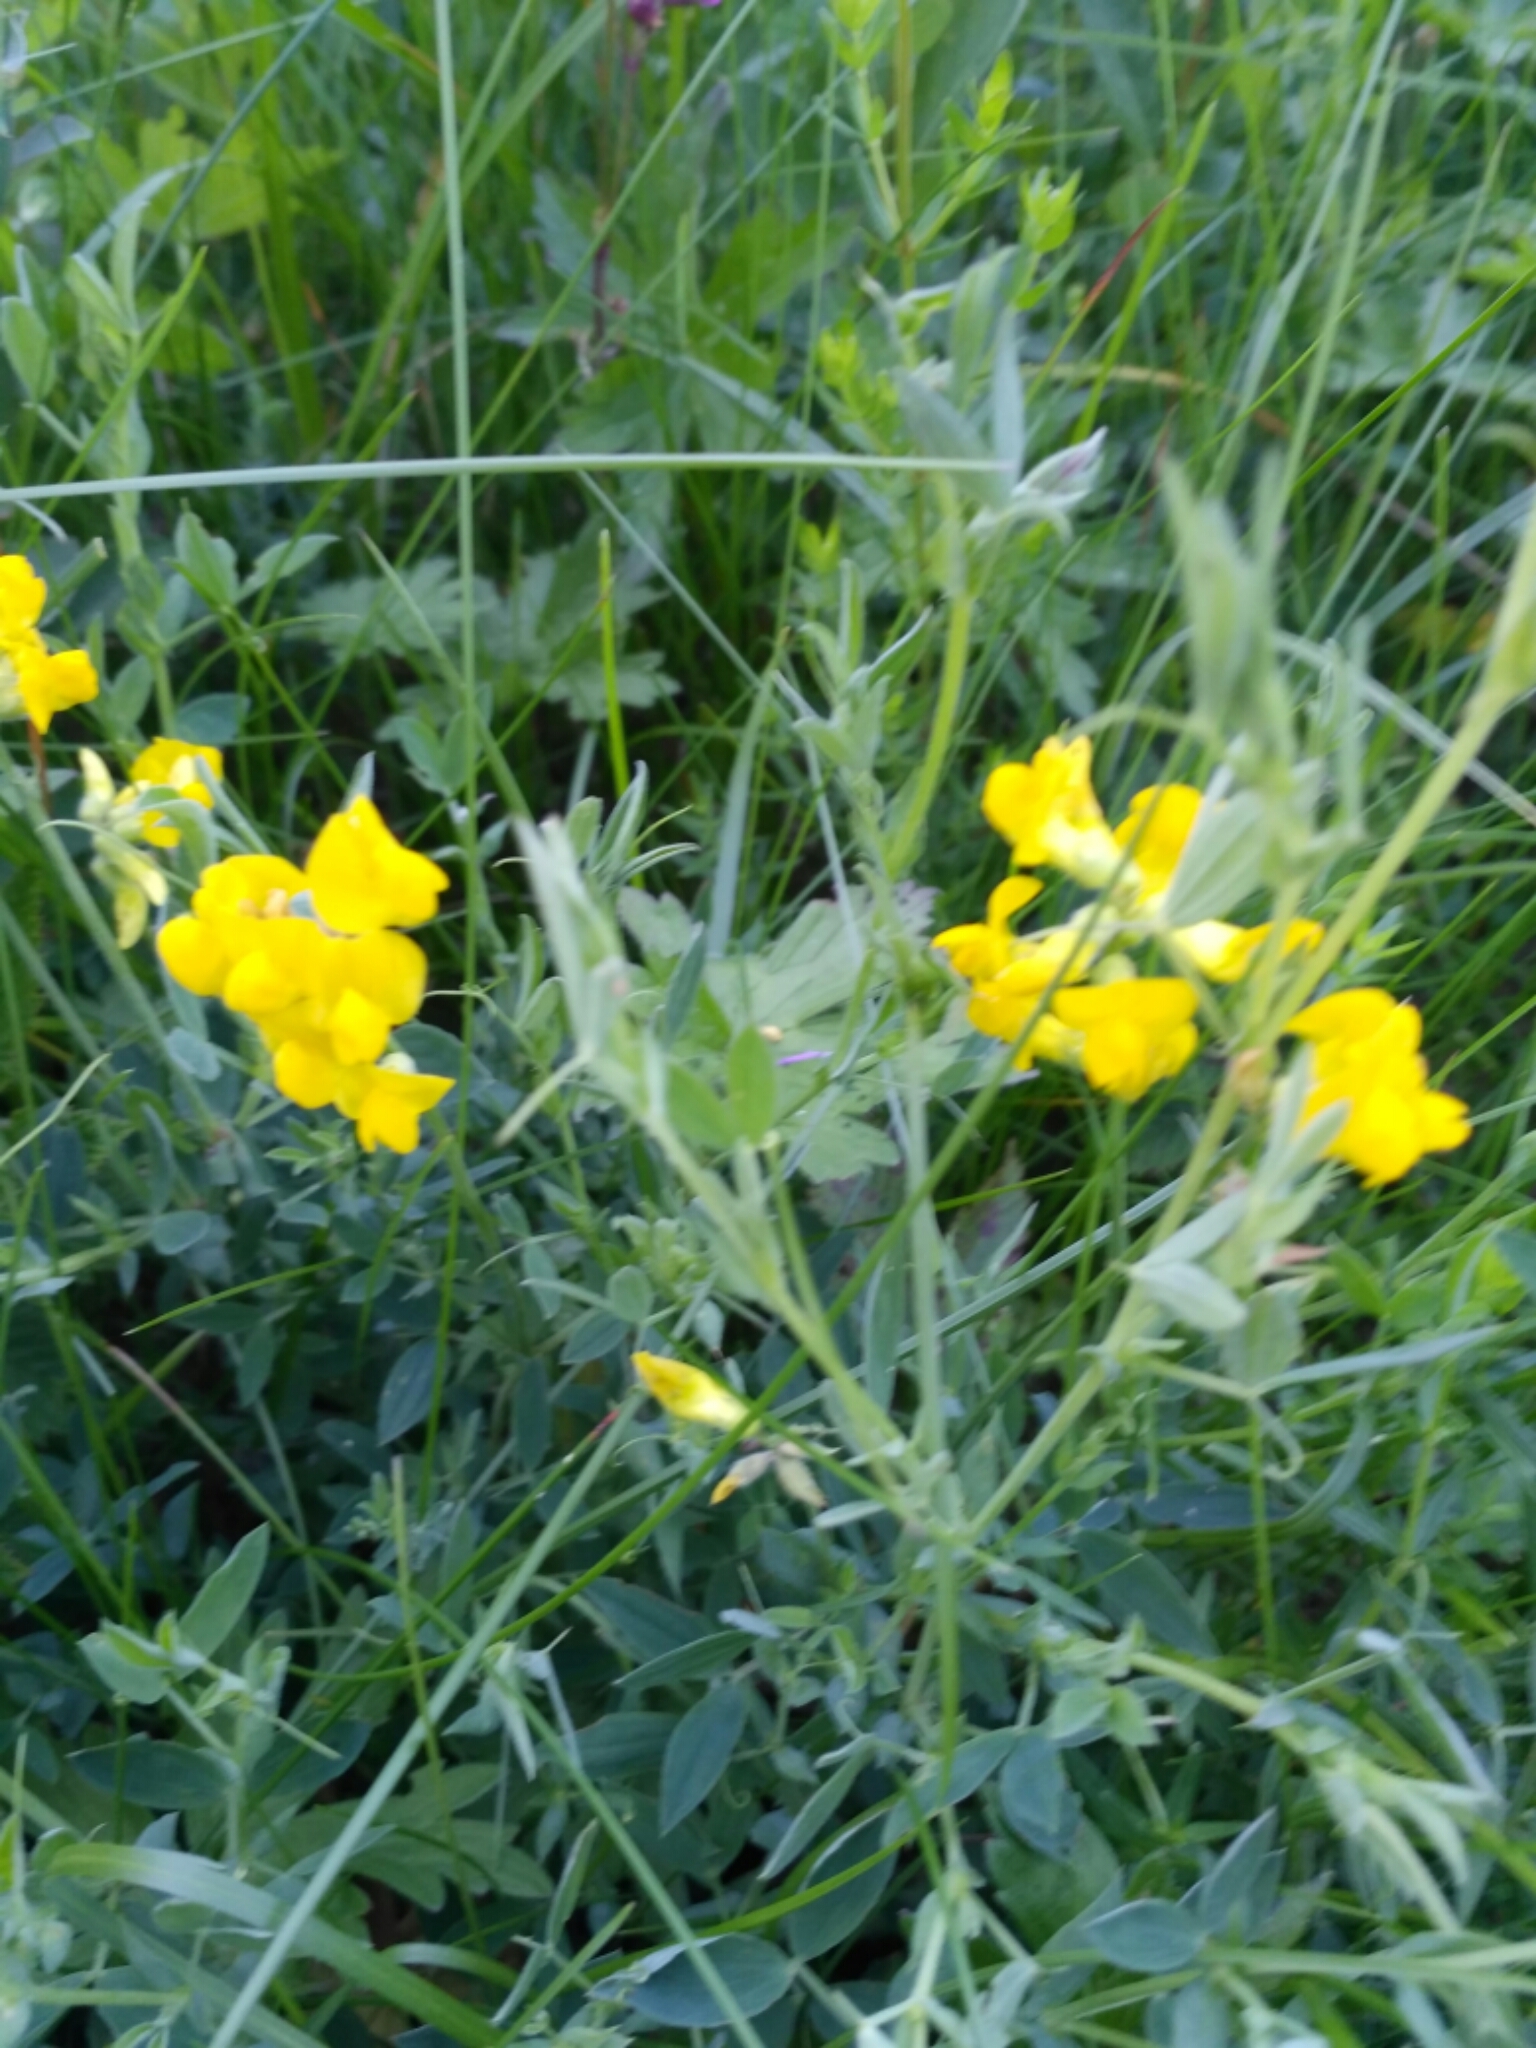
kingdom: Plantae
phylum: Tracheophyta
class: Magnoliopsida
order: Fabales
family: Fabaceae
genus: Lathyrus
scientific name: Lathyrus pratensis
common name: Meadow vetchling
